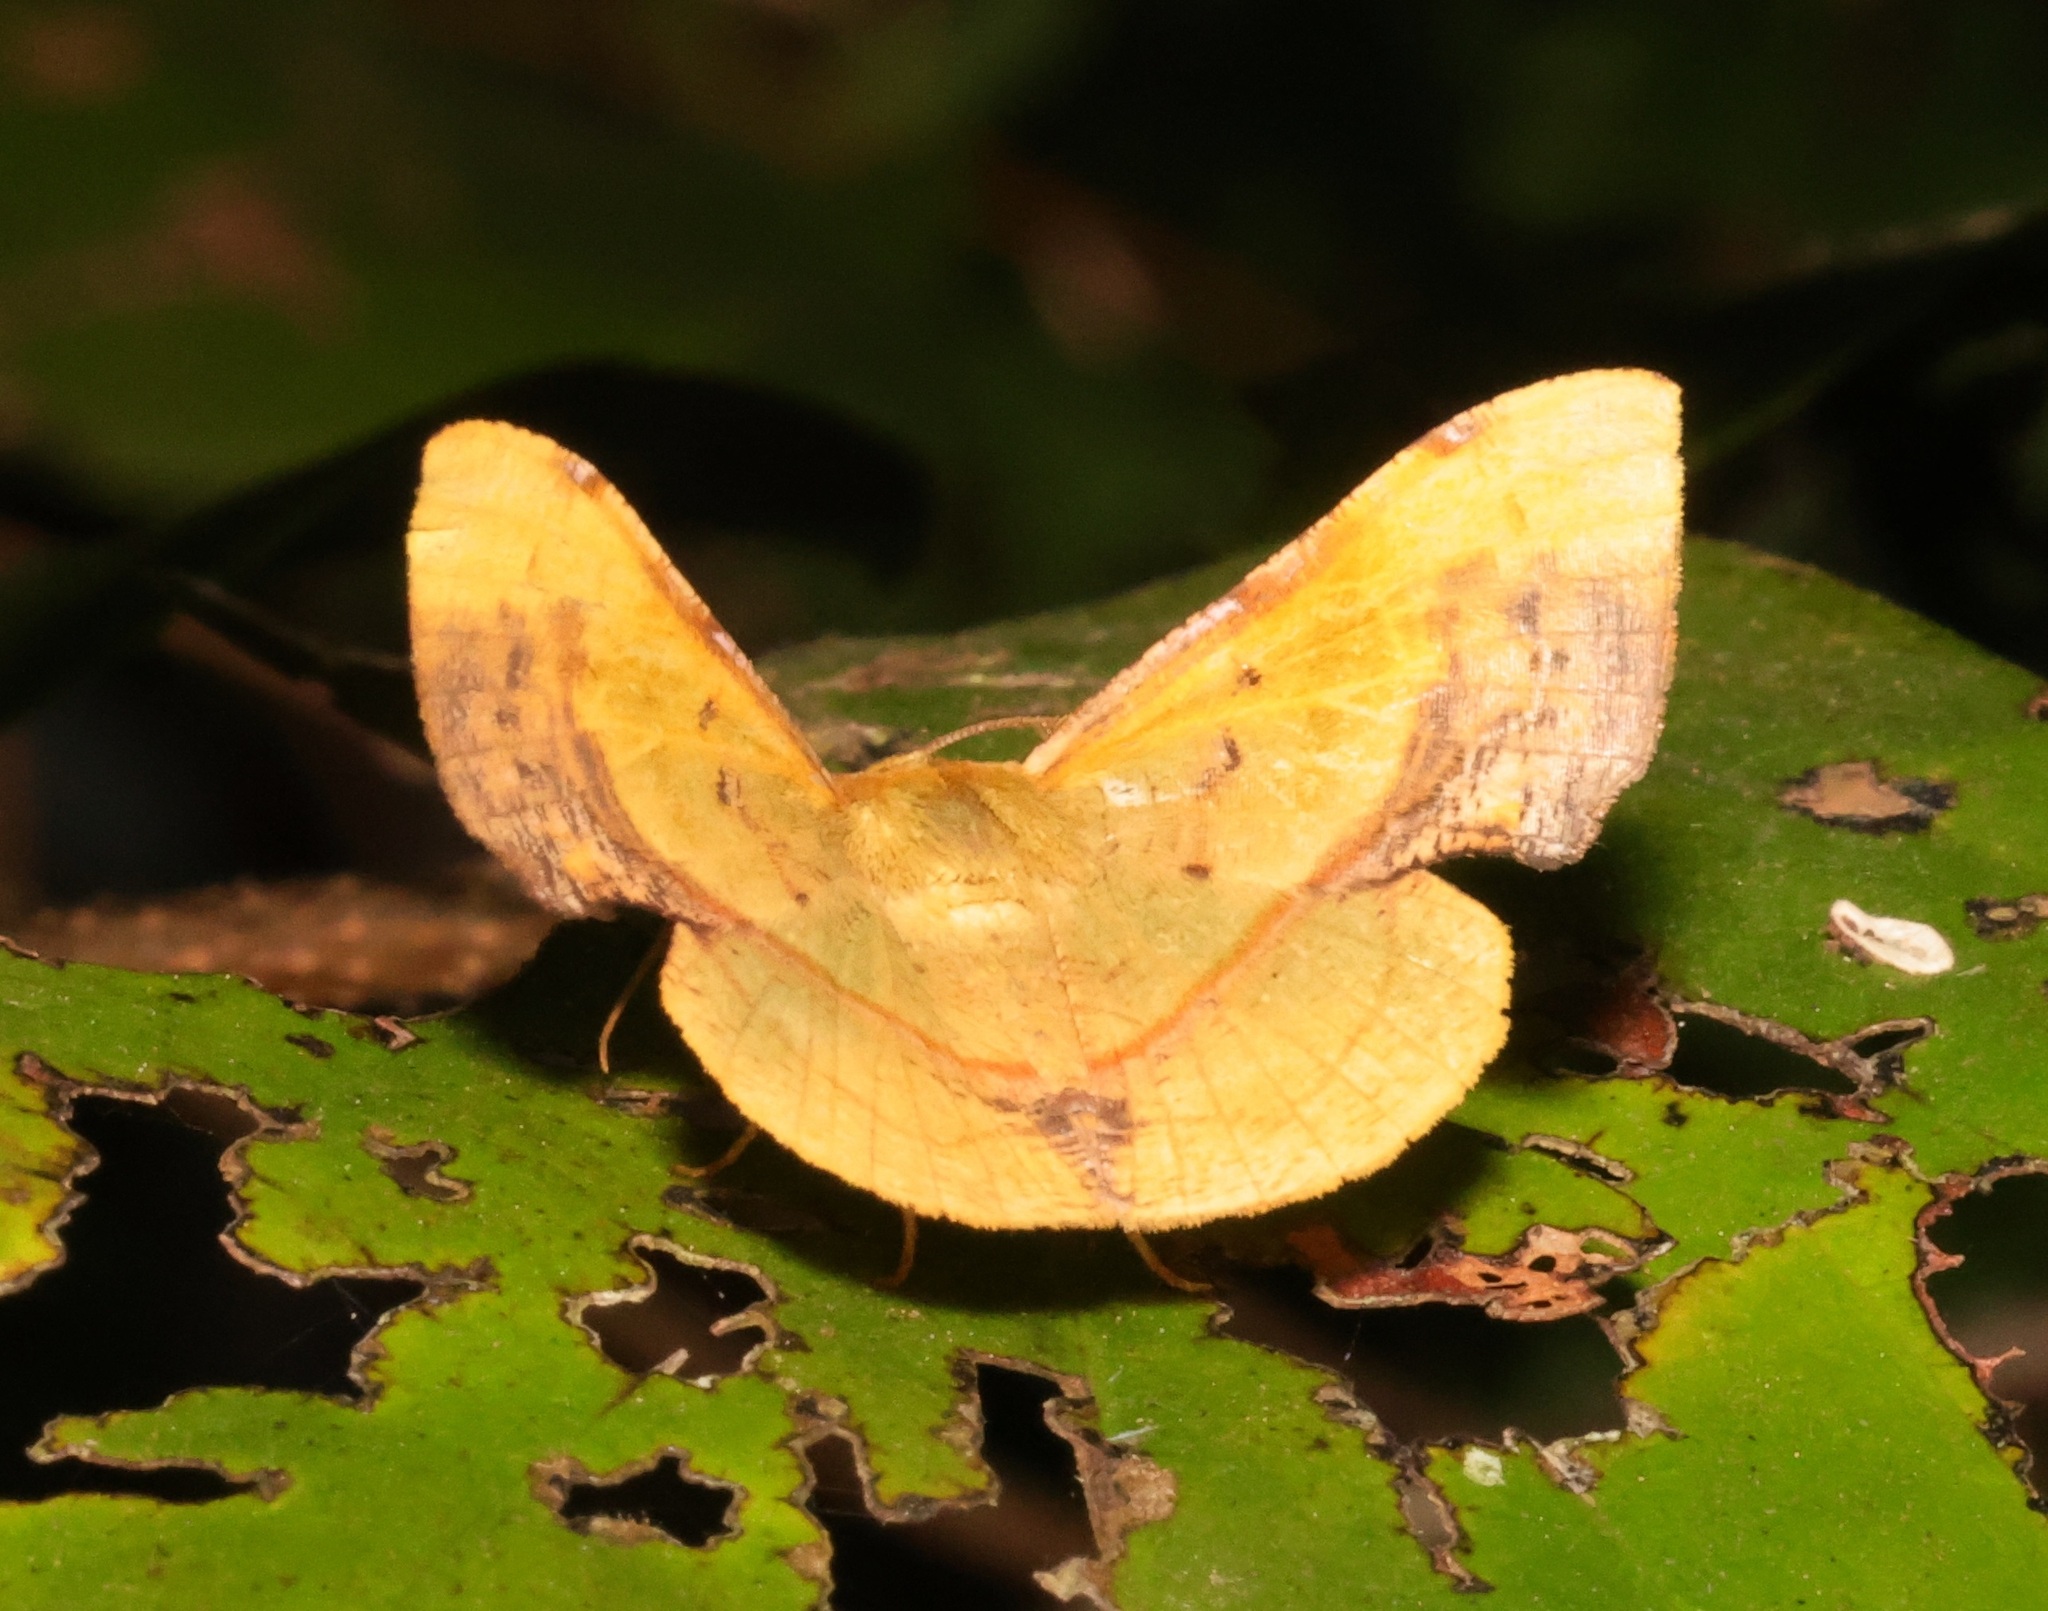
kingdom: Animalia
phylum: Arthropoda
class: Insecta
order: Lepidoptera
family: Geometridae
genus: Fascellina
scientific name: Fascellina plagiata
